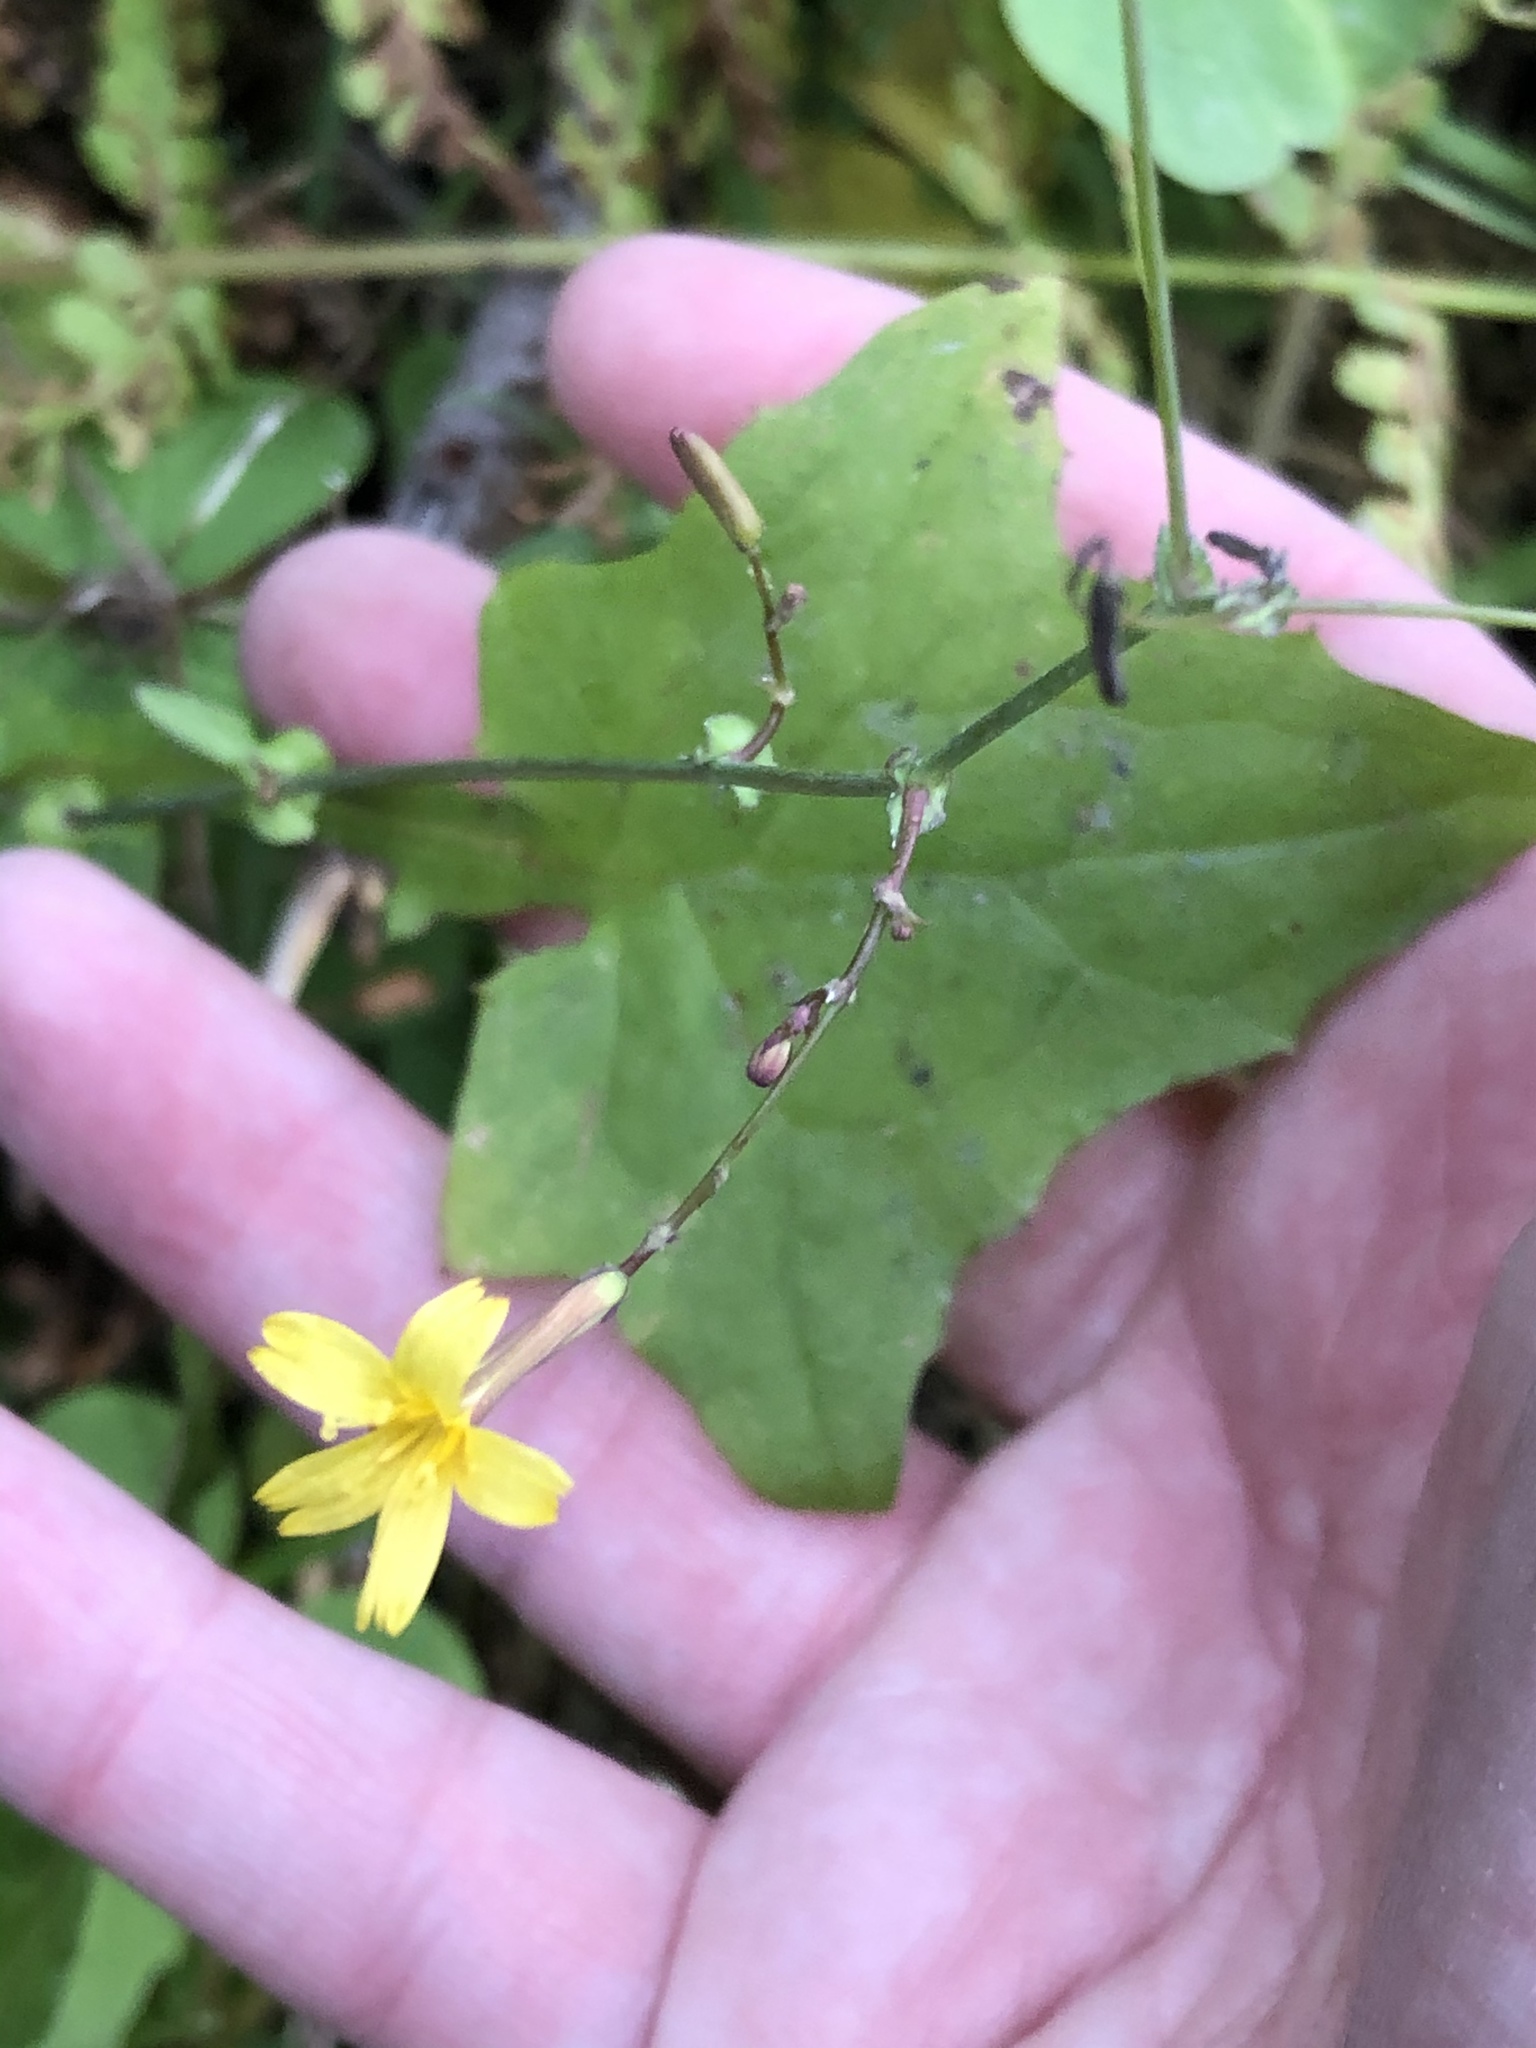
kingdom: Plantae
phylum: Tracheophyta
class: Magnoliopsida
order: Asterales
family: Asteraceae
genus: Mycelis
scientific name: Mycelis muralis
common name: Wall lettuce
